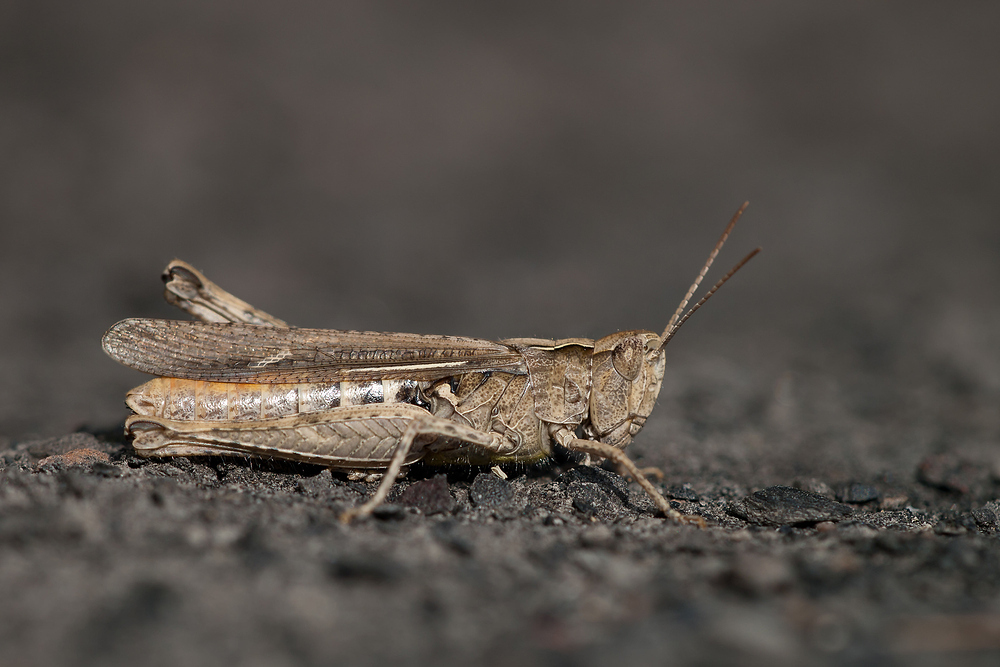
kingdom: Animalia
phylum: Arthropoda
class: Insecta
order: Orthoptera
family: Acrididae
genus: Chorthippus
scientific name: Chorthippus brunneus
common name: Field grasshopper
